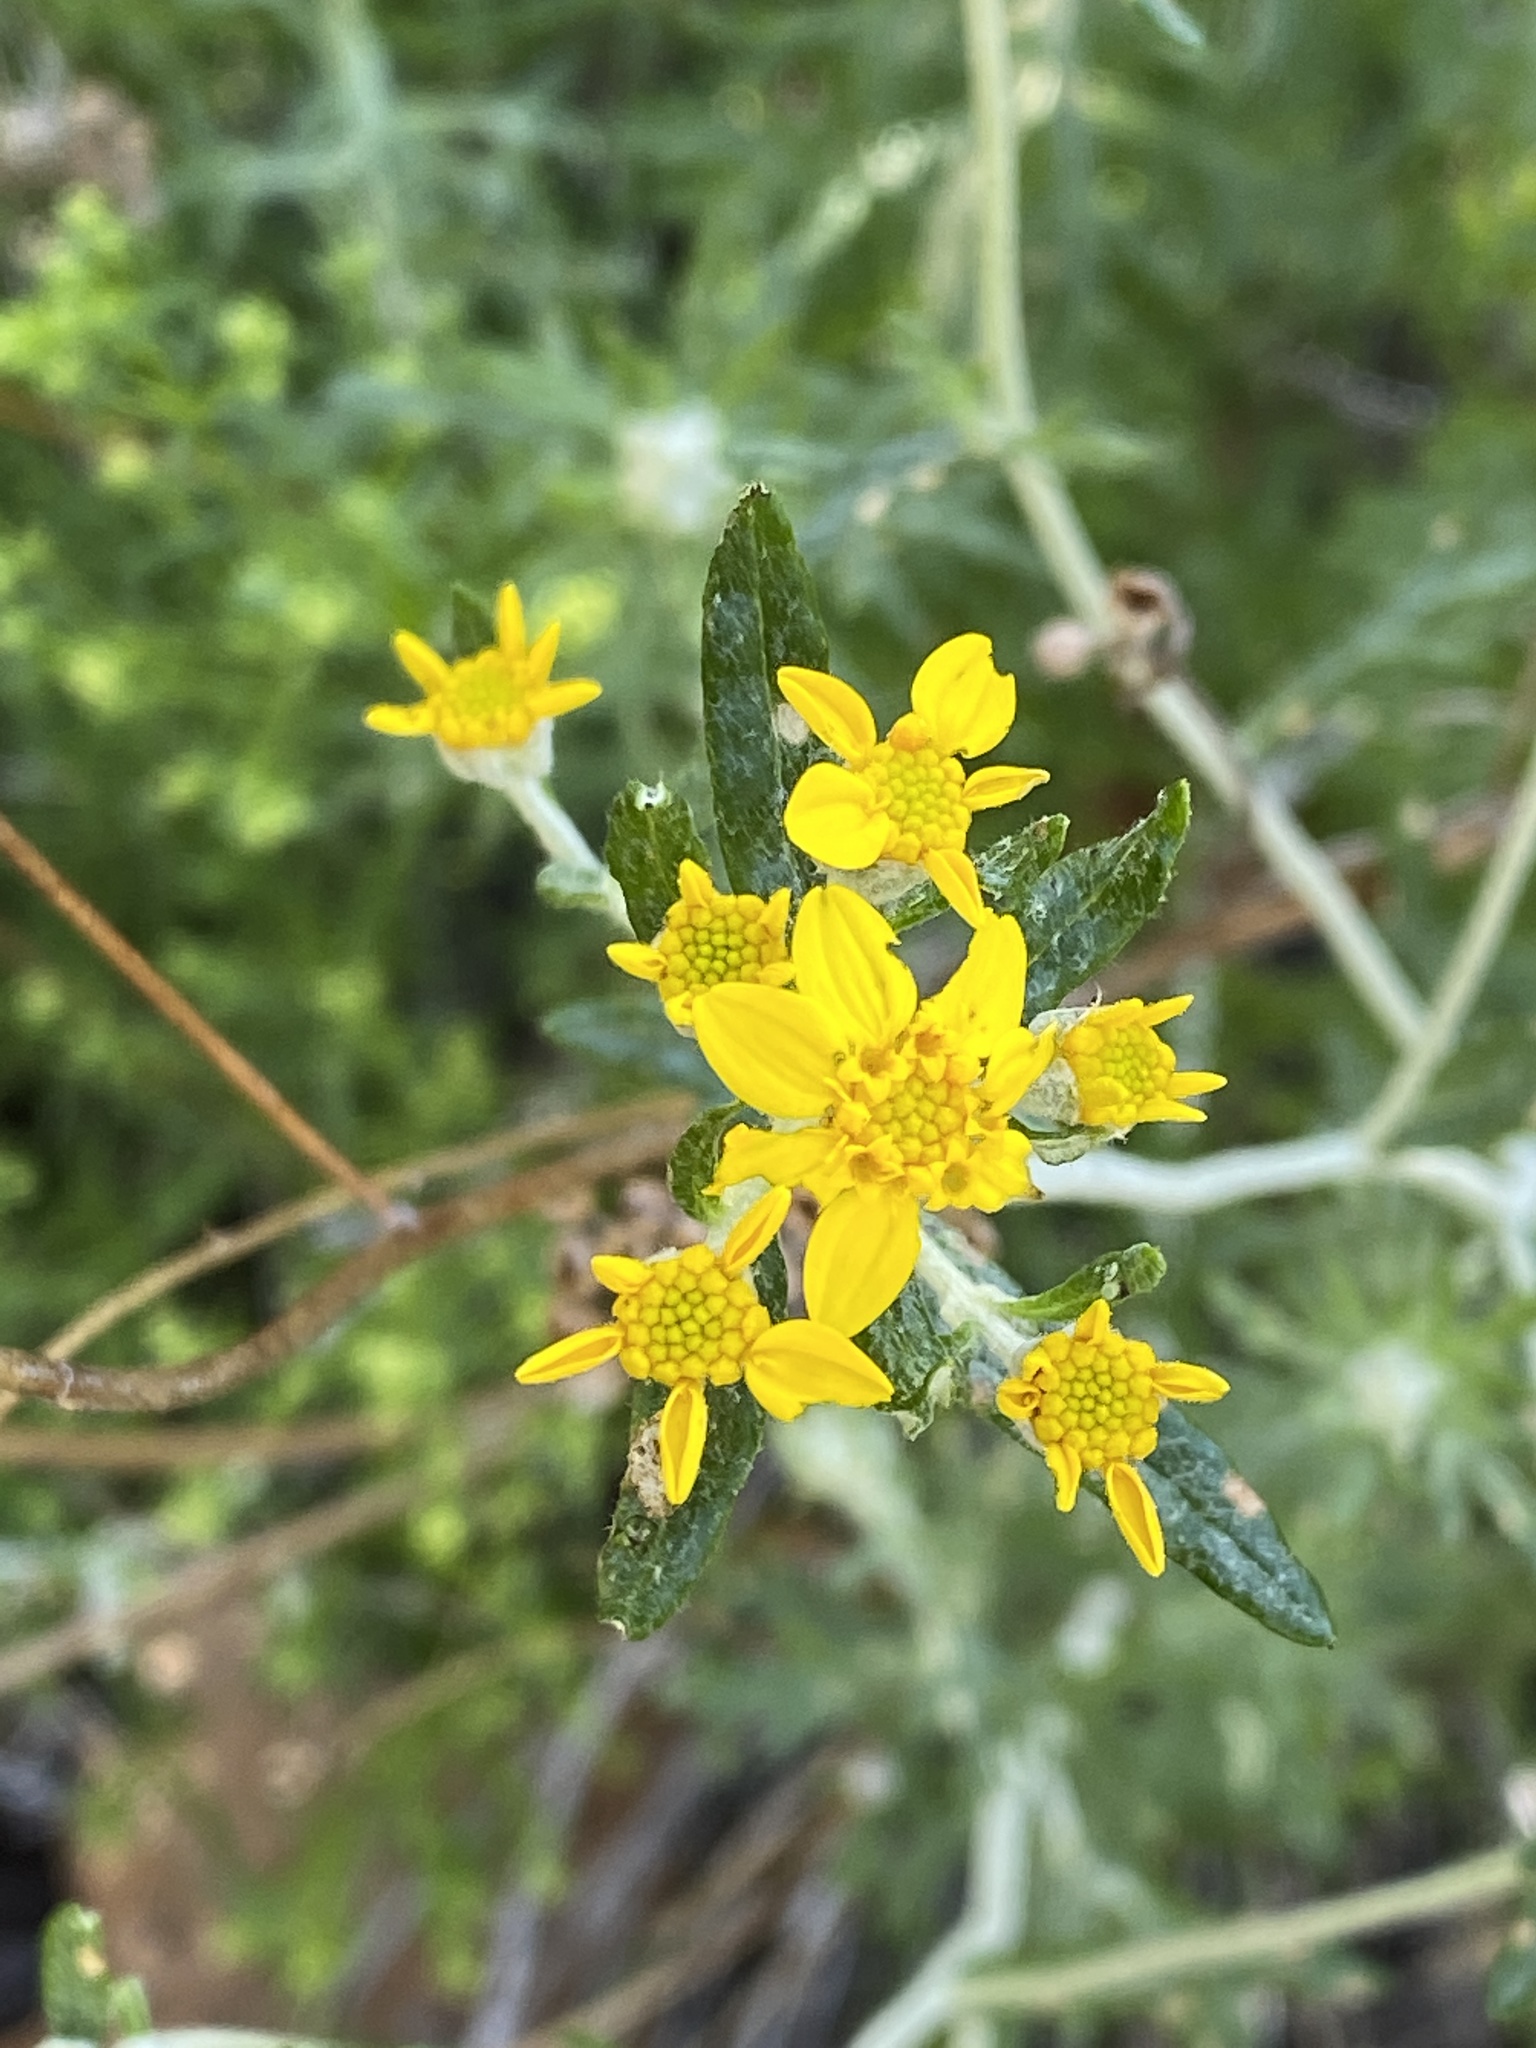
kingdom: Plantae
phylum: Tracheophyta
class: Magnoliopsida
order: Asterales
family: Asteraceae
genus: Eriophyllum
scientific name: Eriophyllum confertiflorum
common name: Golden-yarrow
